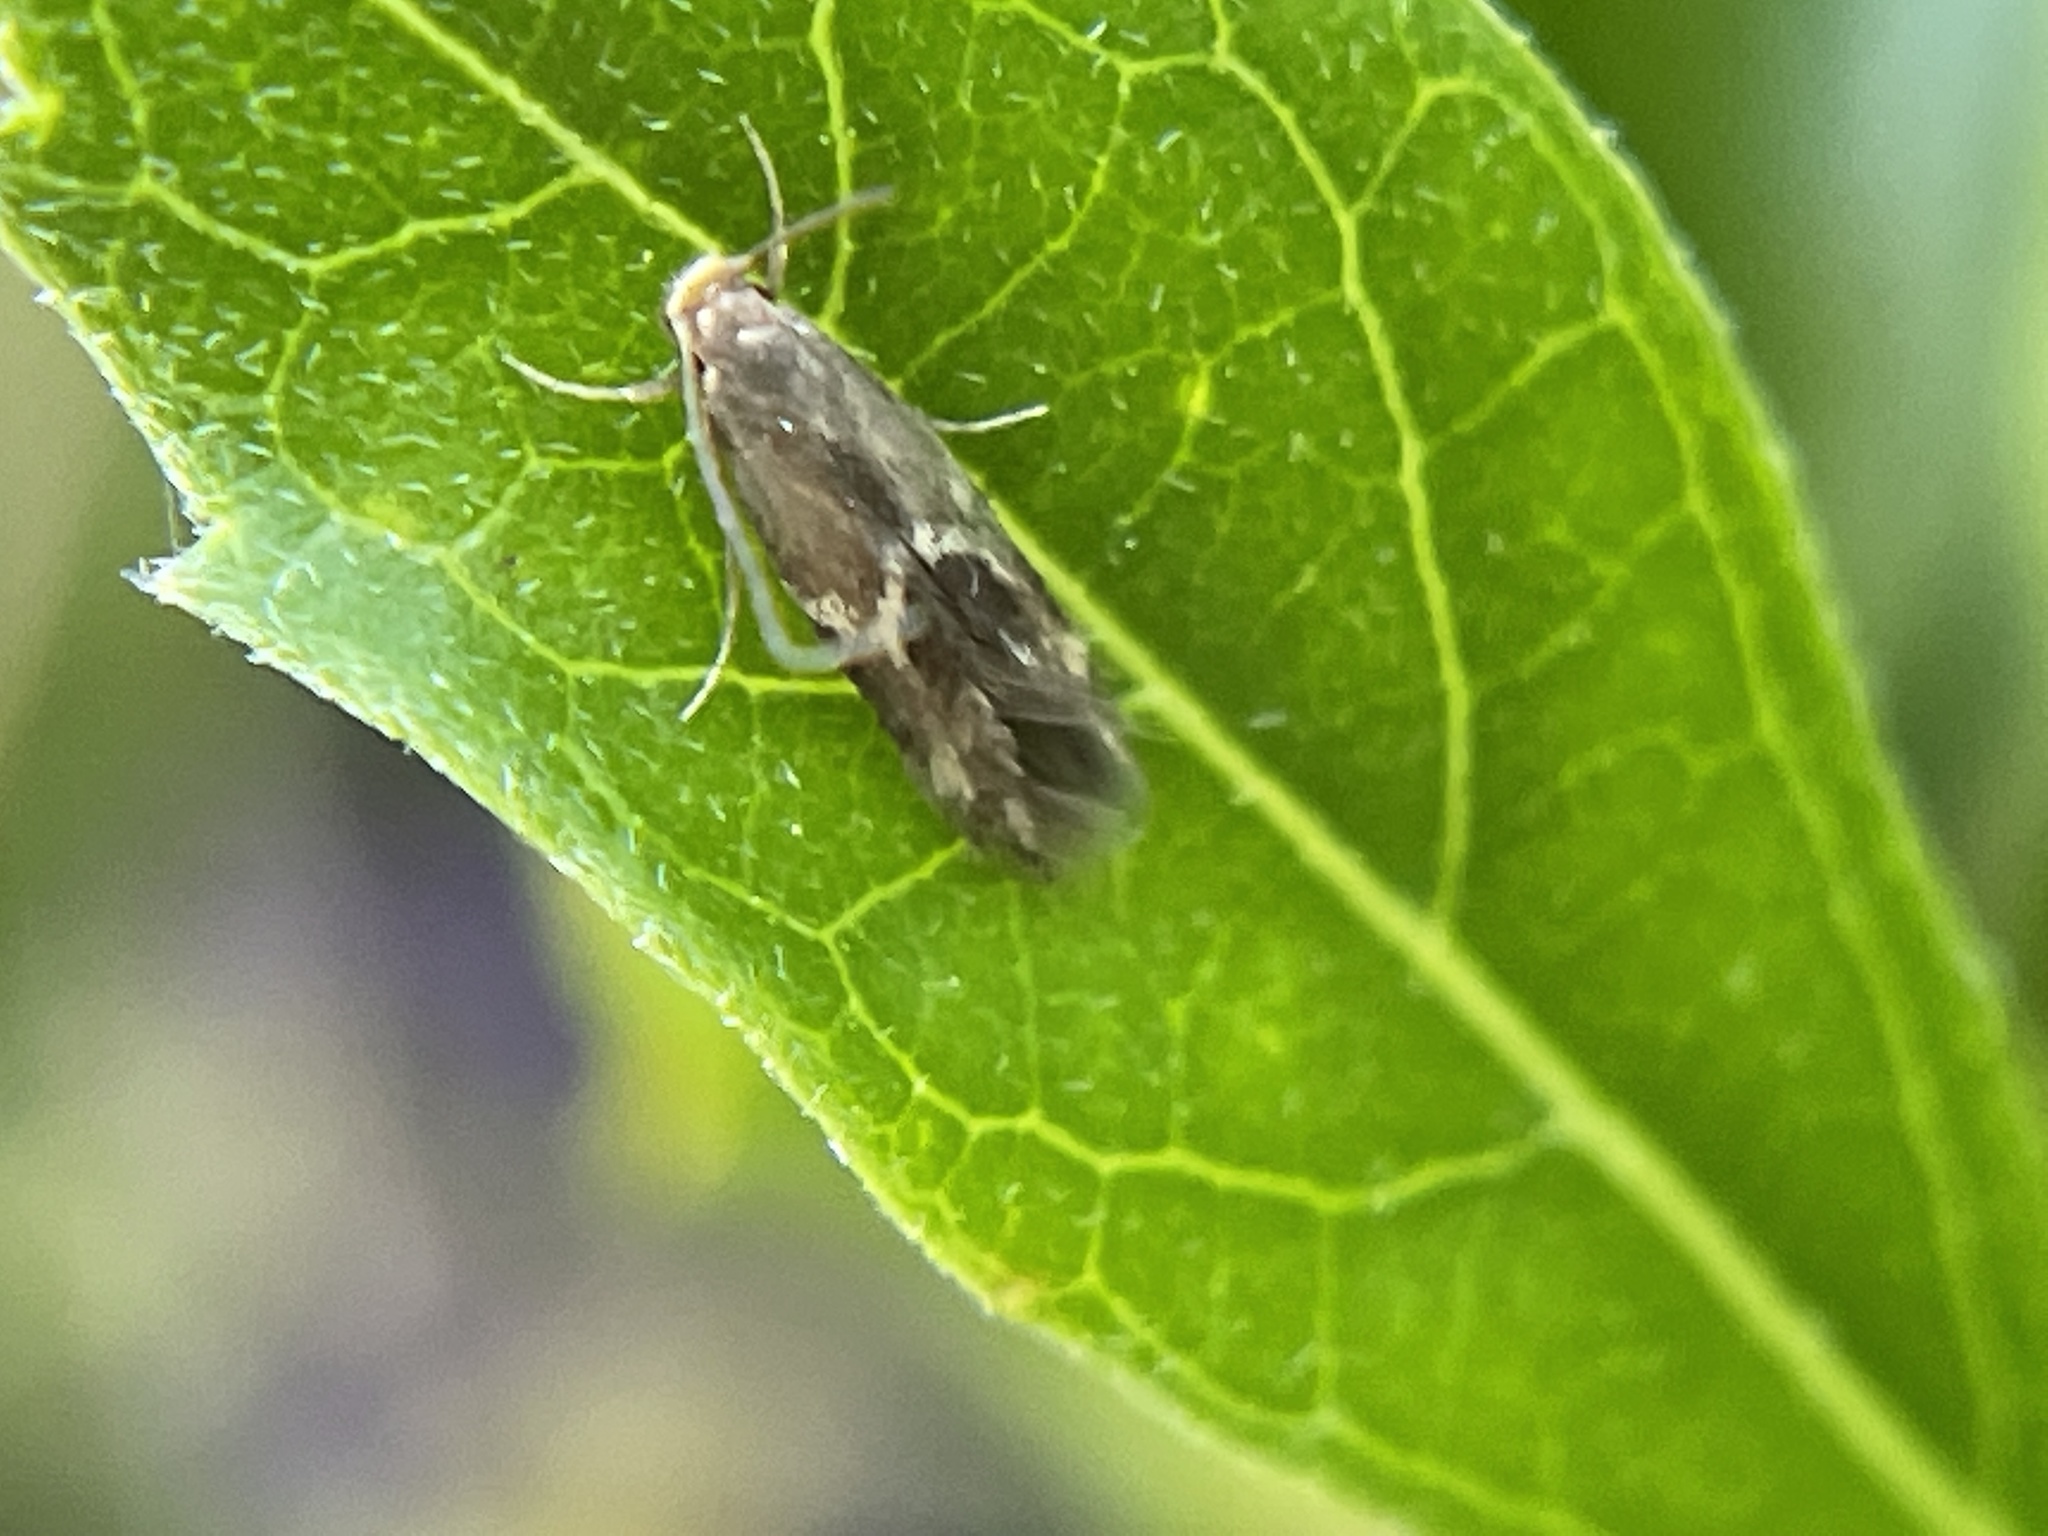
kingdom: Animalia
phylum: Arthropoda
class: Insecta
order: Lepidoptera
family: Tineidae
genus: Oinophila
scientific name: Oinophila v-flava
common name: Yellow v moth
